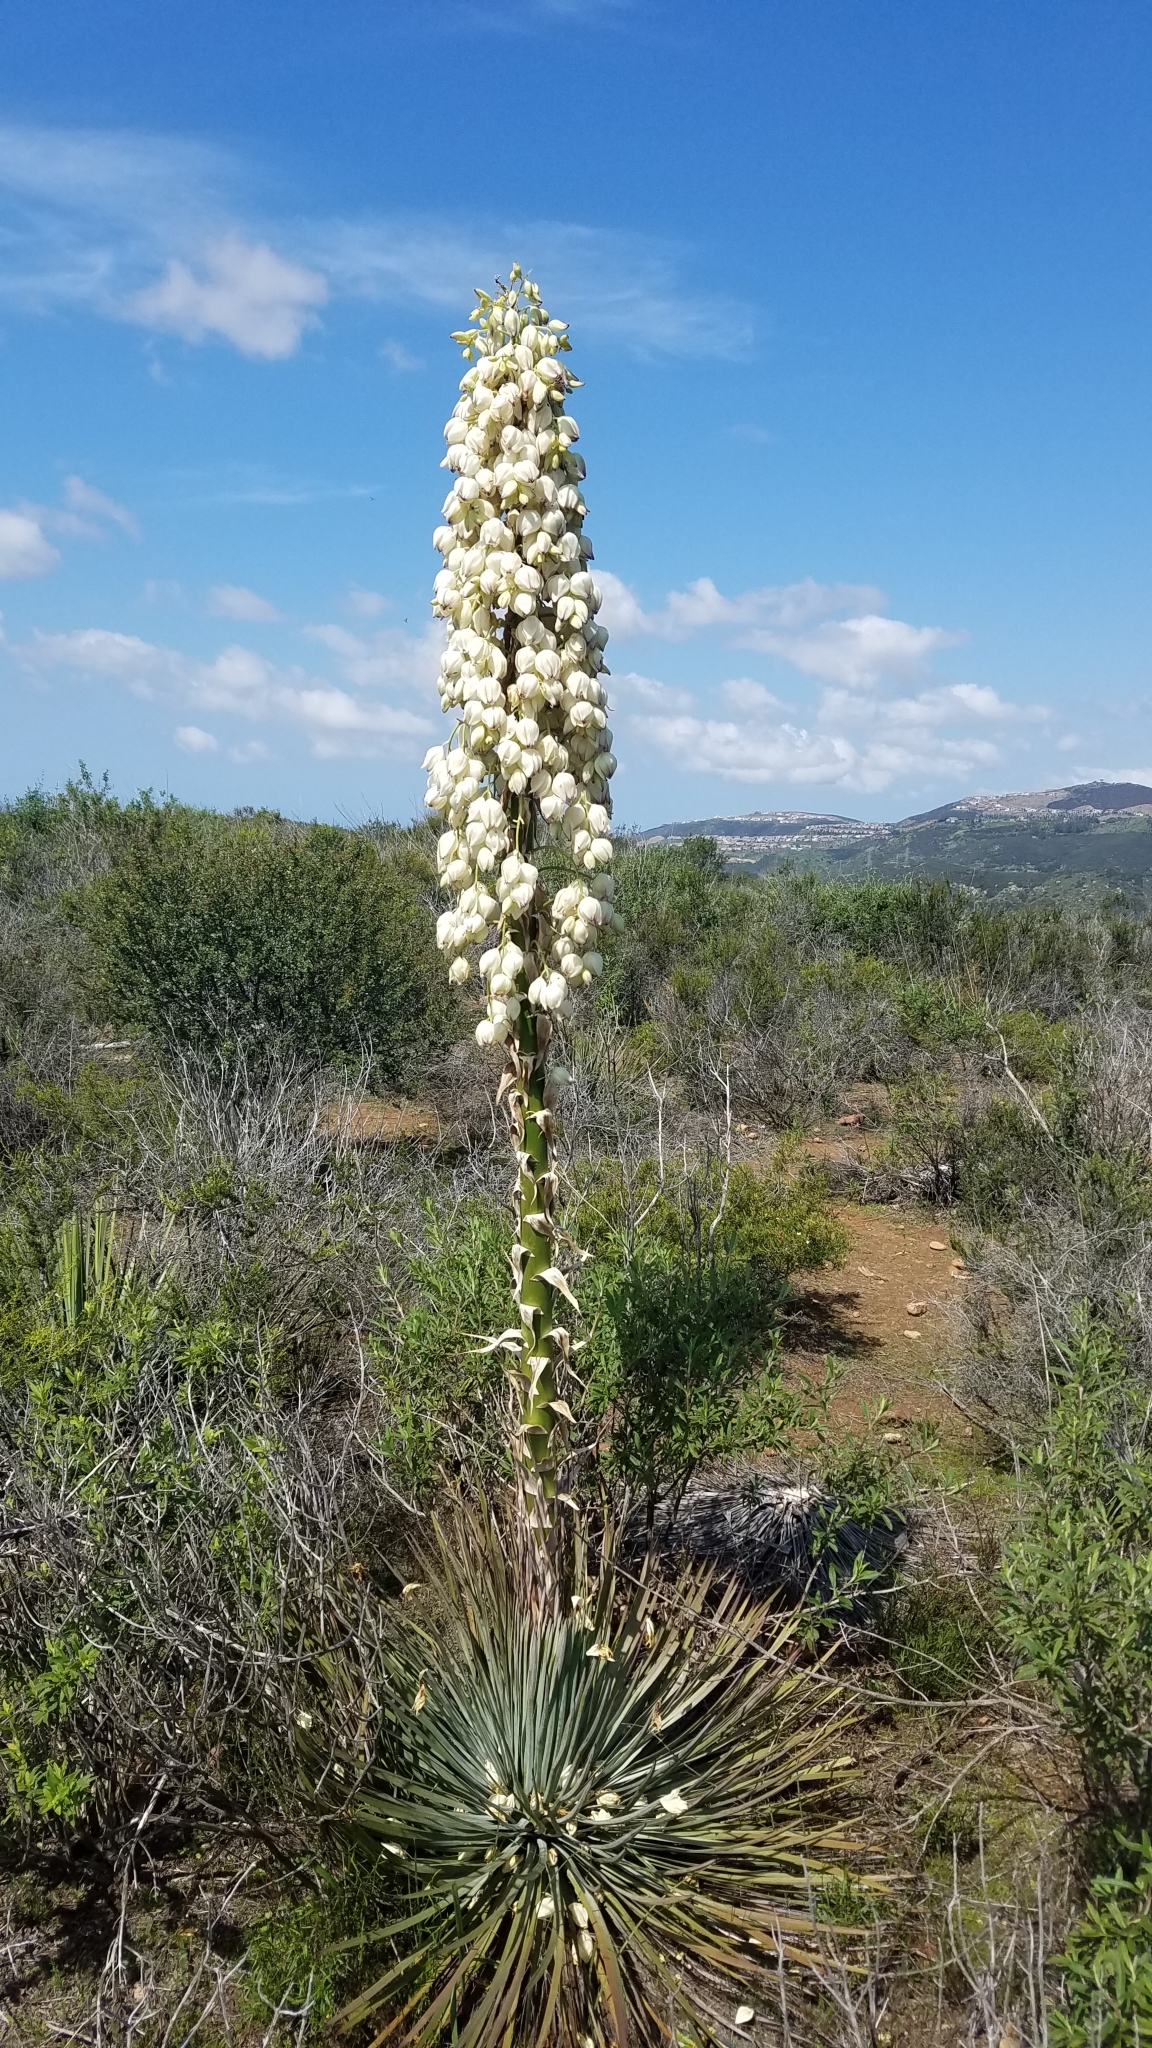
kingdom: Plantae
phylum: Tracheophyta
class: Liliopsida
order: Asparagales
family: Asparagaceae
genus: Hesperoyucca
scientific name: Hesperoyucca whipplei
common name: Our lord's-candle
